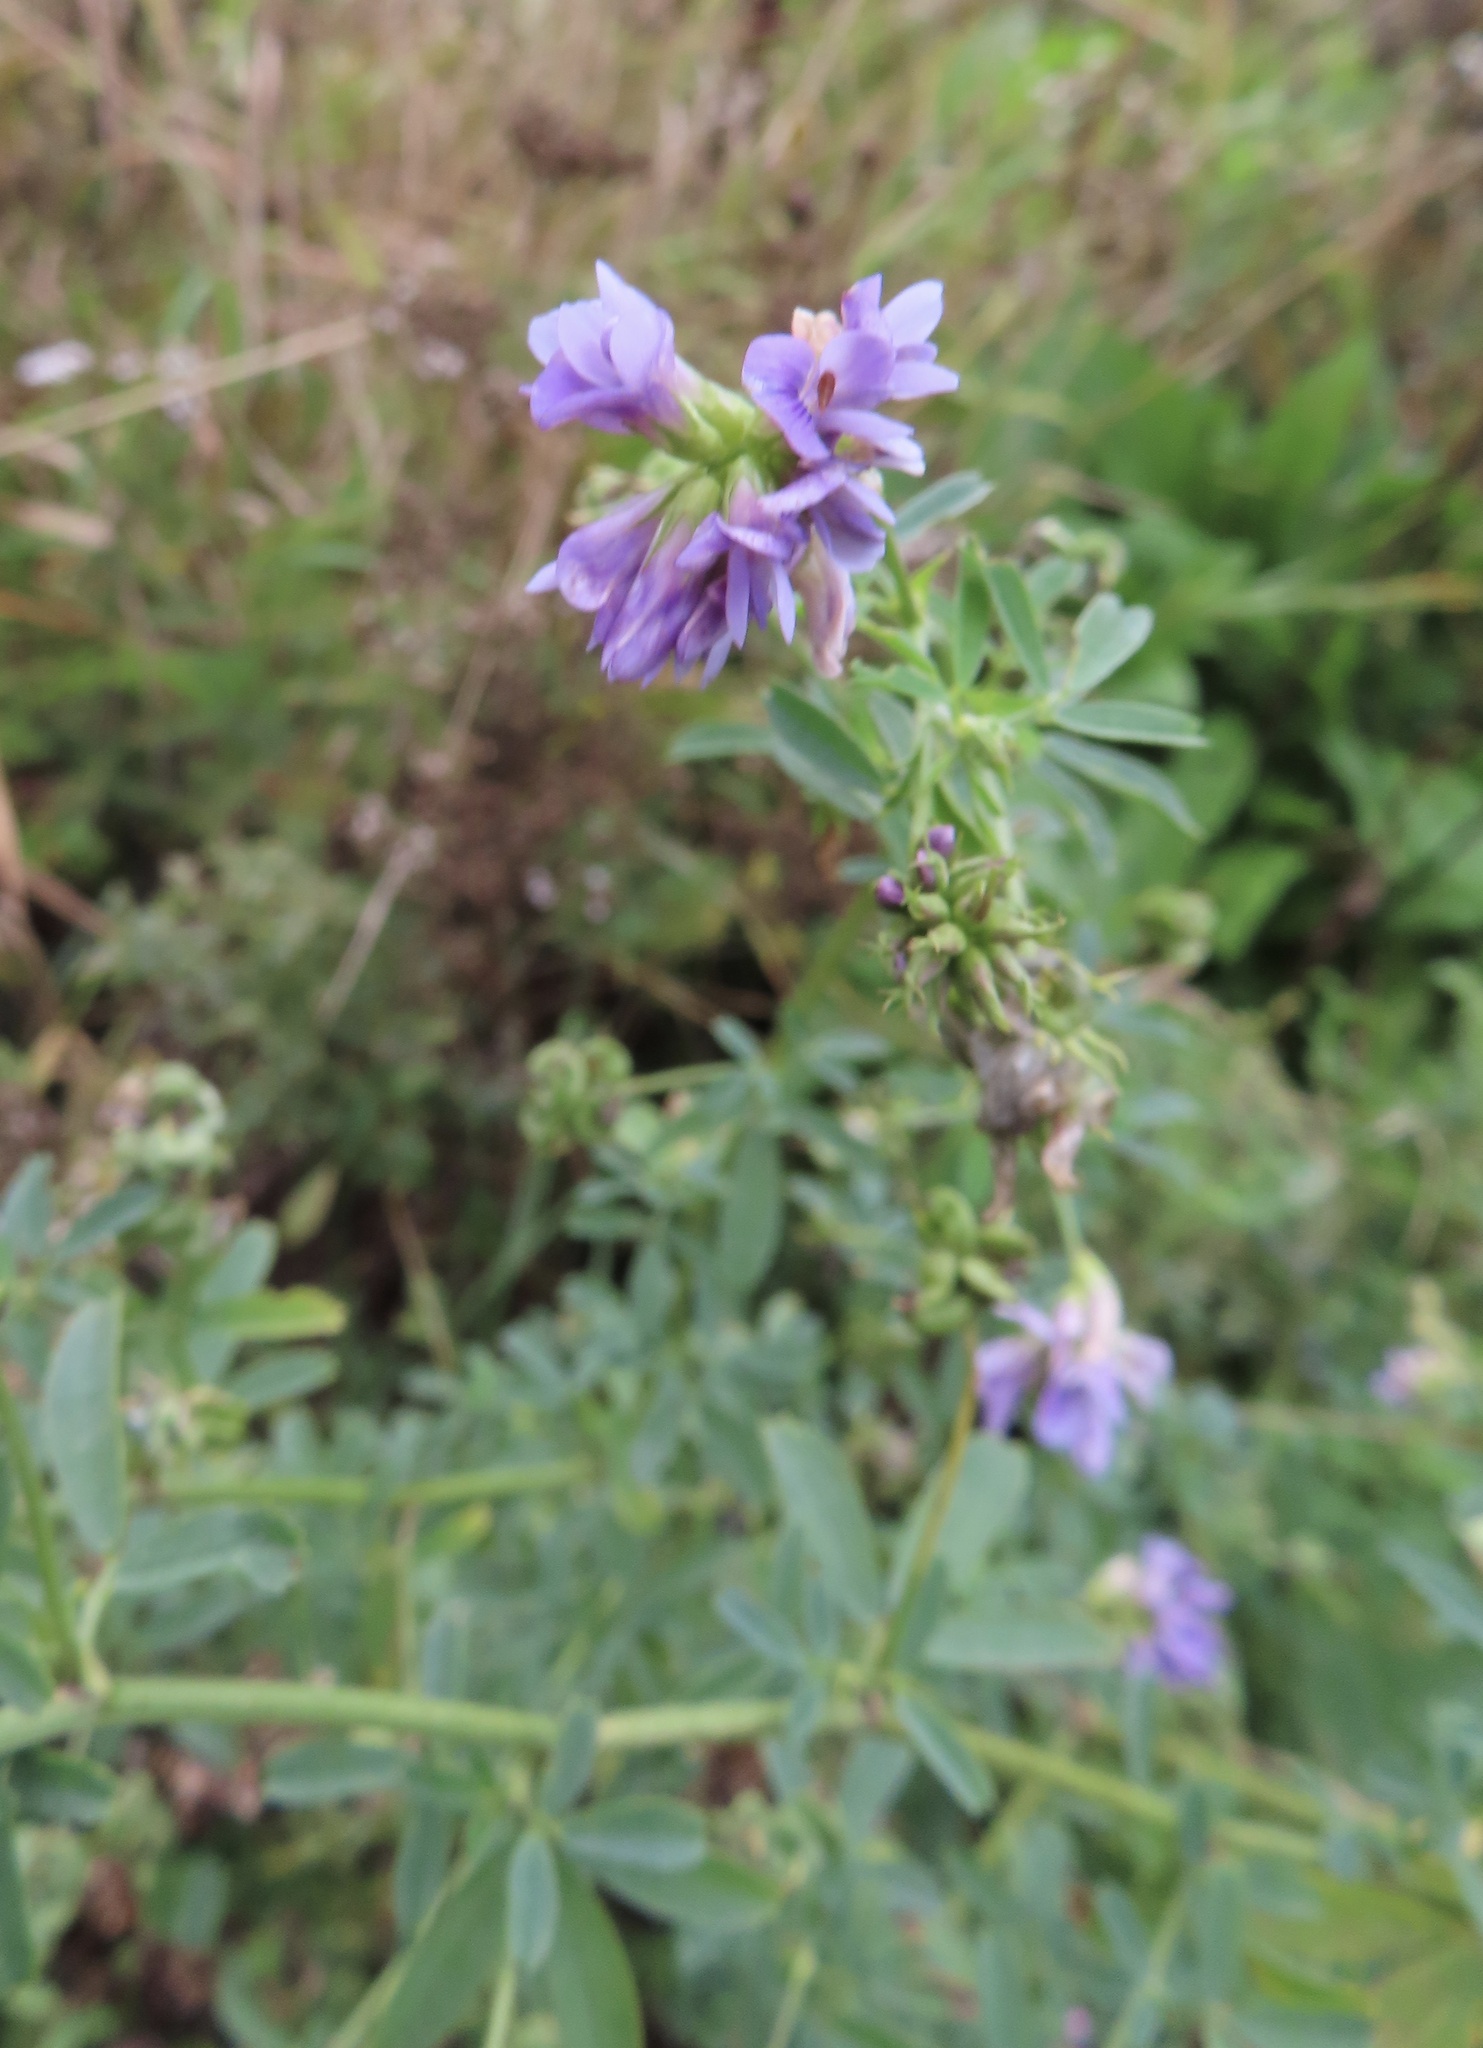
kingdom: Plantae
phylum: Tracheophyta
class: Magnoliopsida
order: Fabales
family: Fabaceae
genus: Medicago
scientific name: Medicago sativa
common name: Alfalfa
